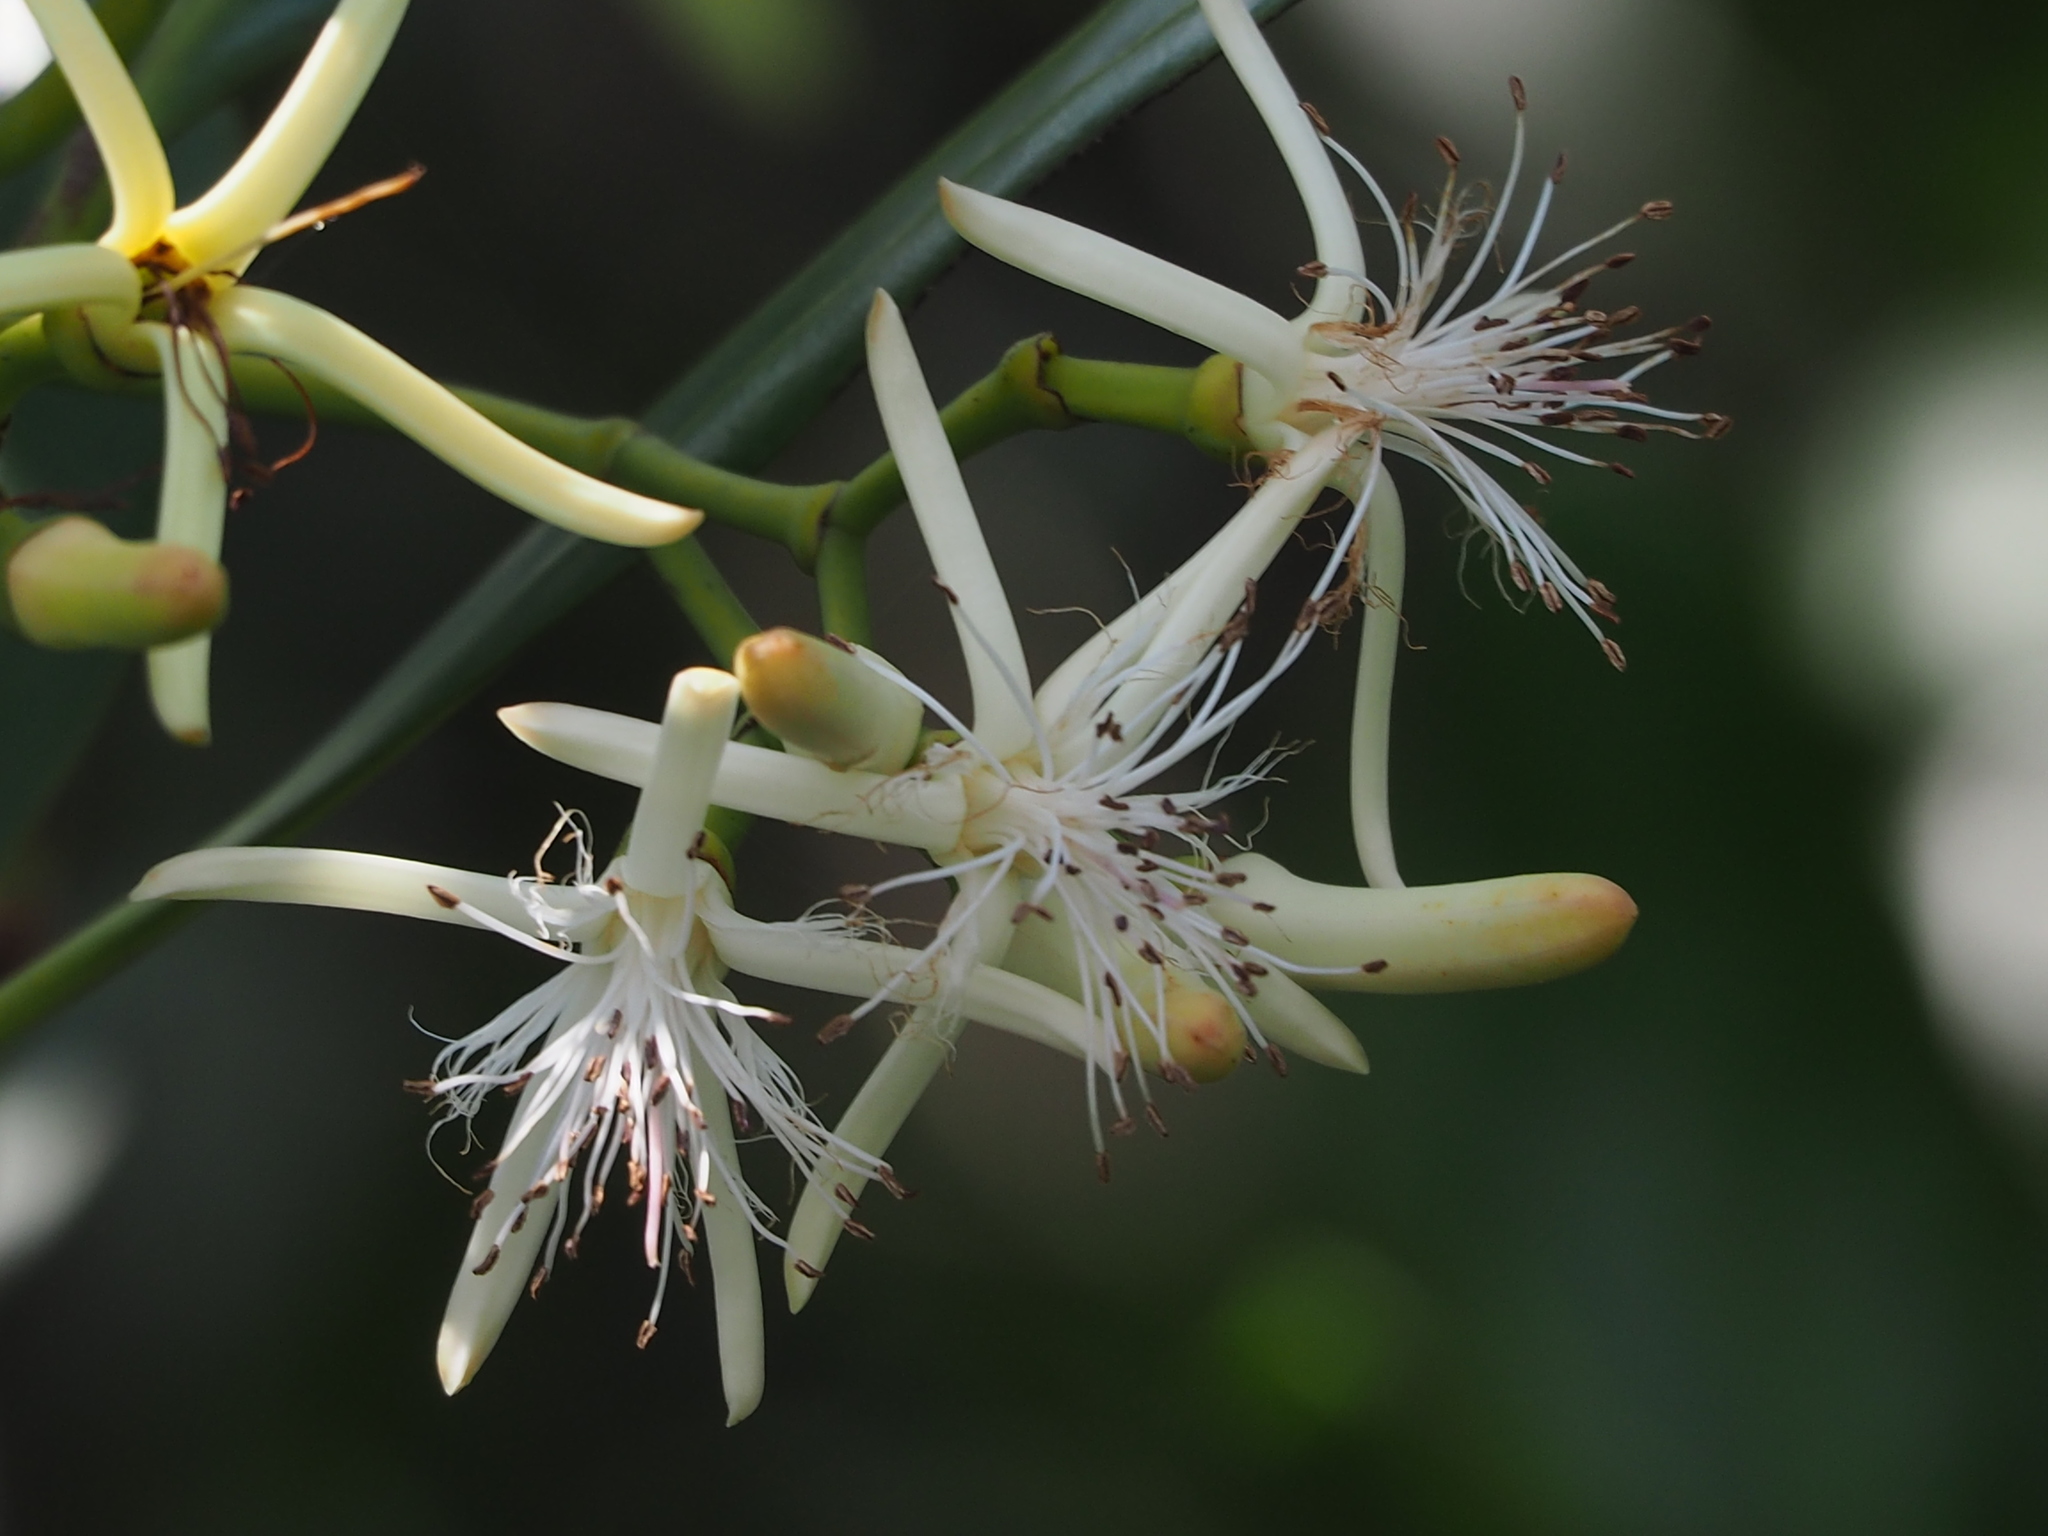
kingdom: Plantae
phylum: Tracheophyta
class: Magnoliopsida
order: Malpighiales
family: Rhizophoraceae
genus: Kandelia
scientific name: Kandelia obovata
